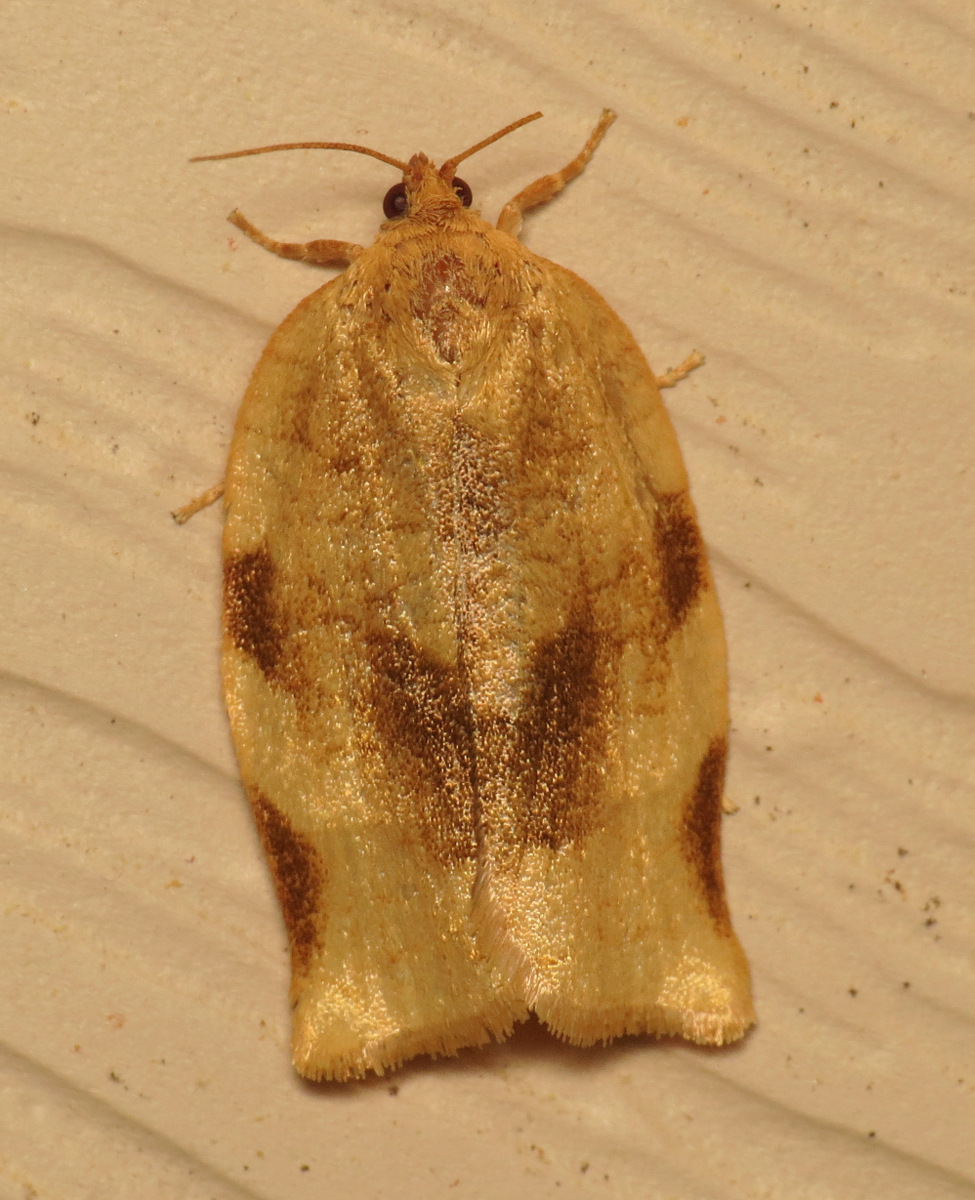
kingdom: Animalia
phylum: Arthropoda
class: Insecta
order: Lepidoptera
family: Tortricidae
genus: Choristoneura
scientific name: Choristoneura fractivittana
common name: Broken-banded leafroller moth
